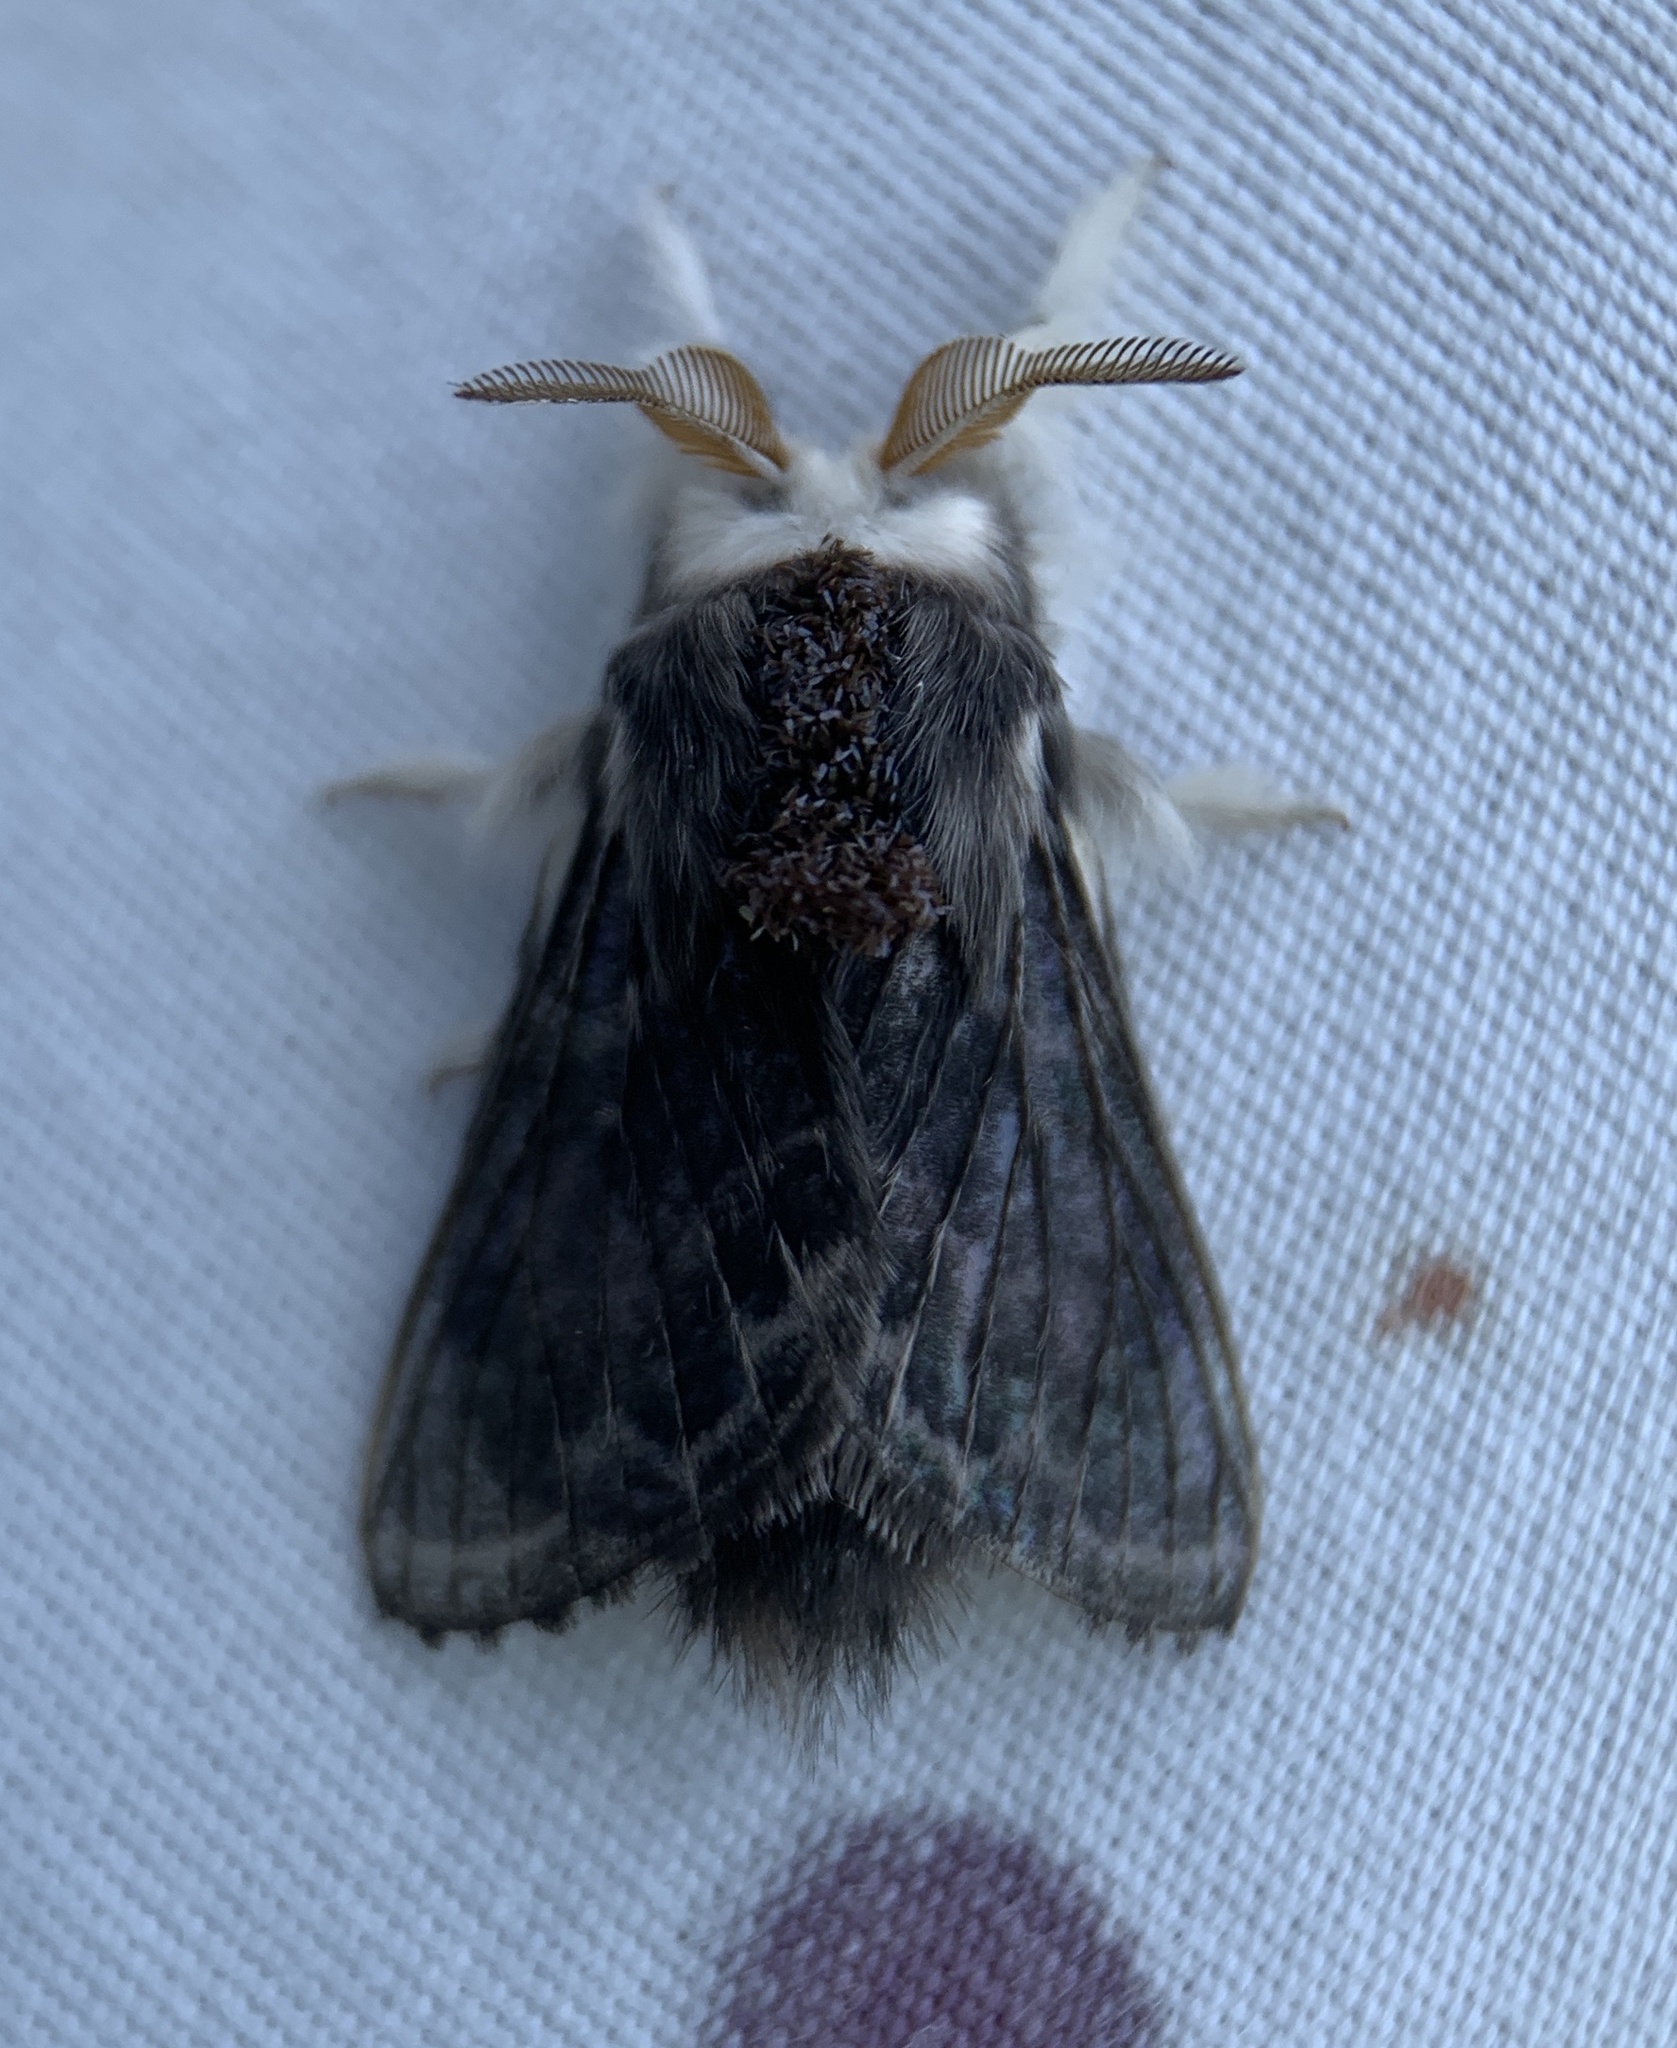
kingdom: Animalia
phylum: Arthropoda
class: Insecta
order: Lepidoptera
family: Lasiocampidae
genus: Tolype
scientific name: Tolype laricis
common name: Larch tolype moth
